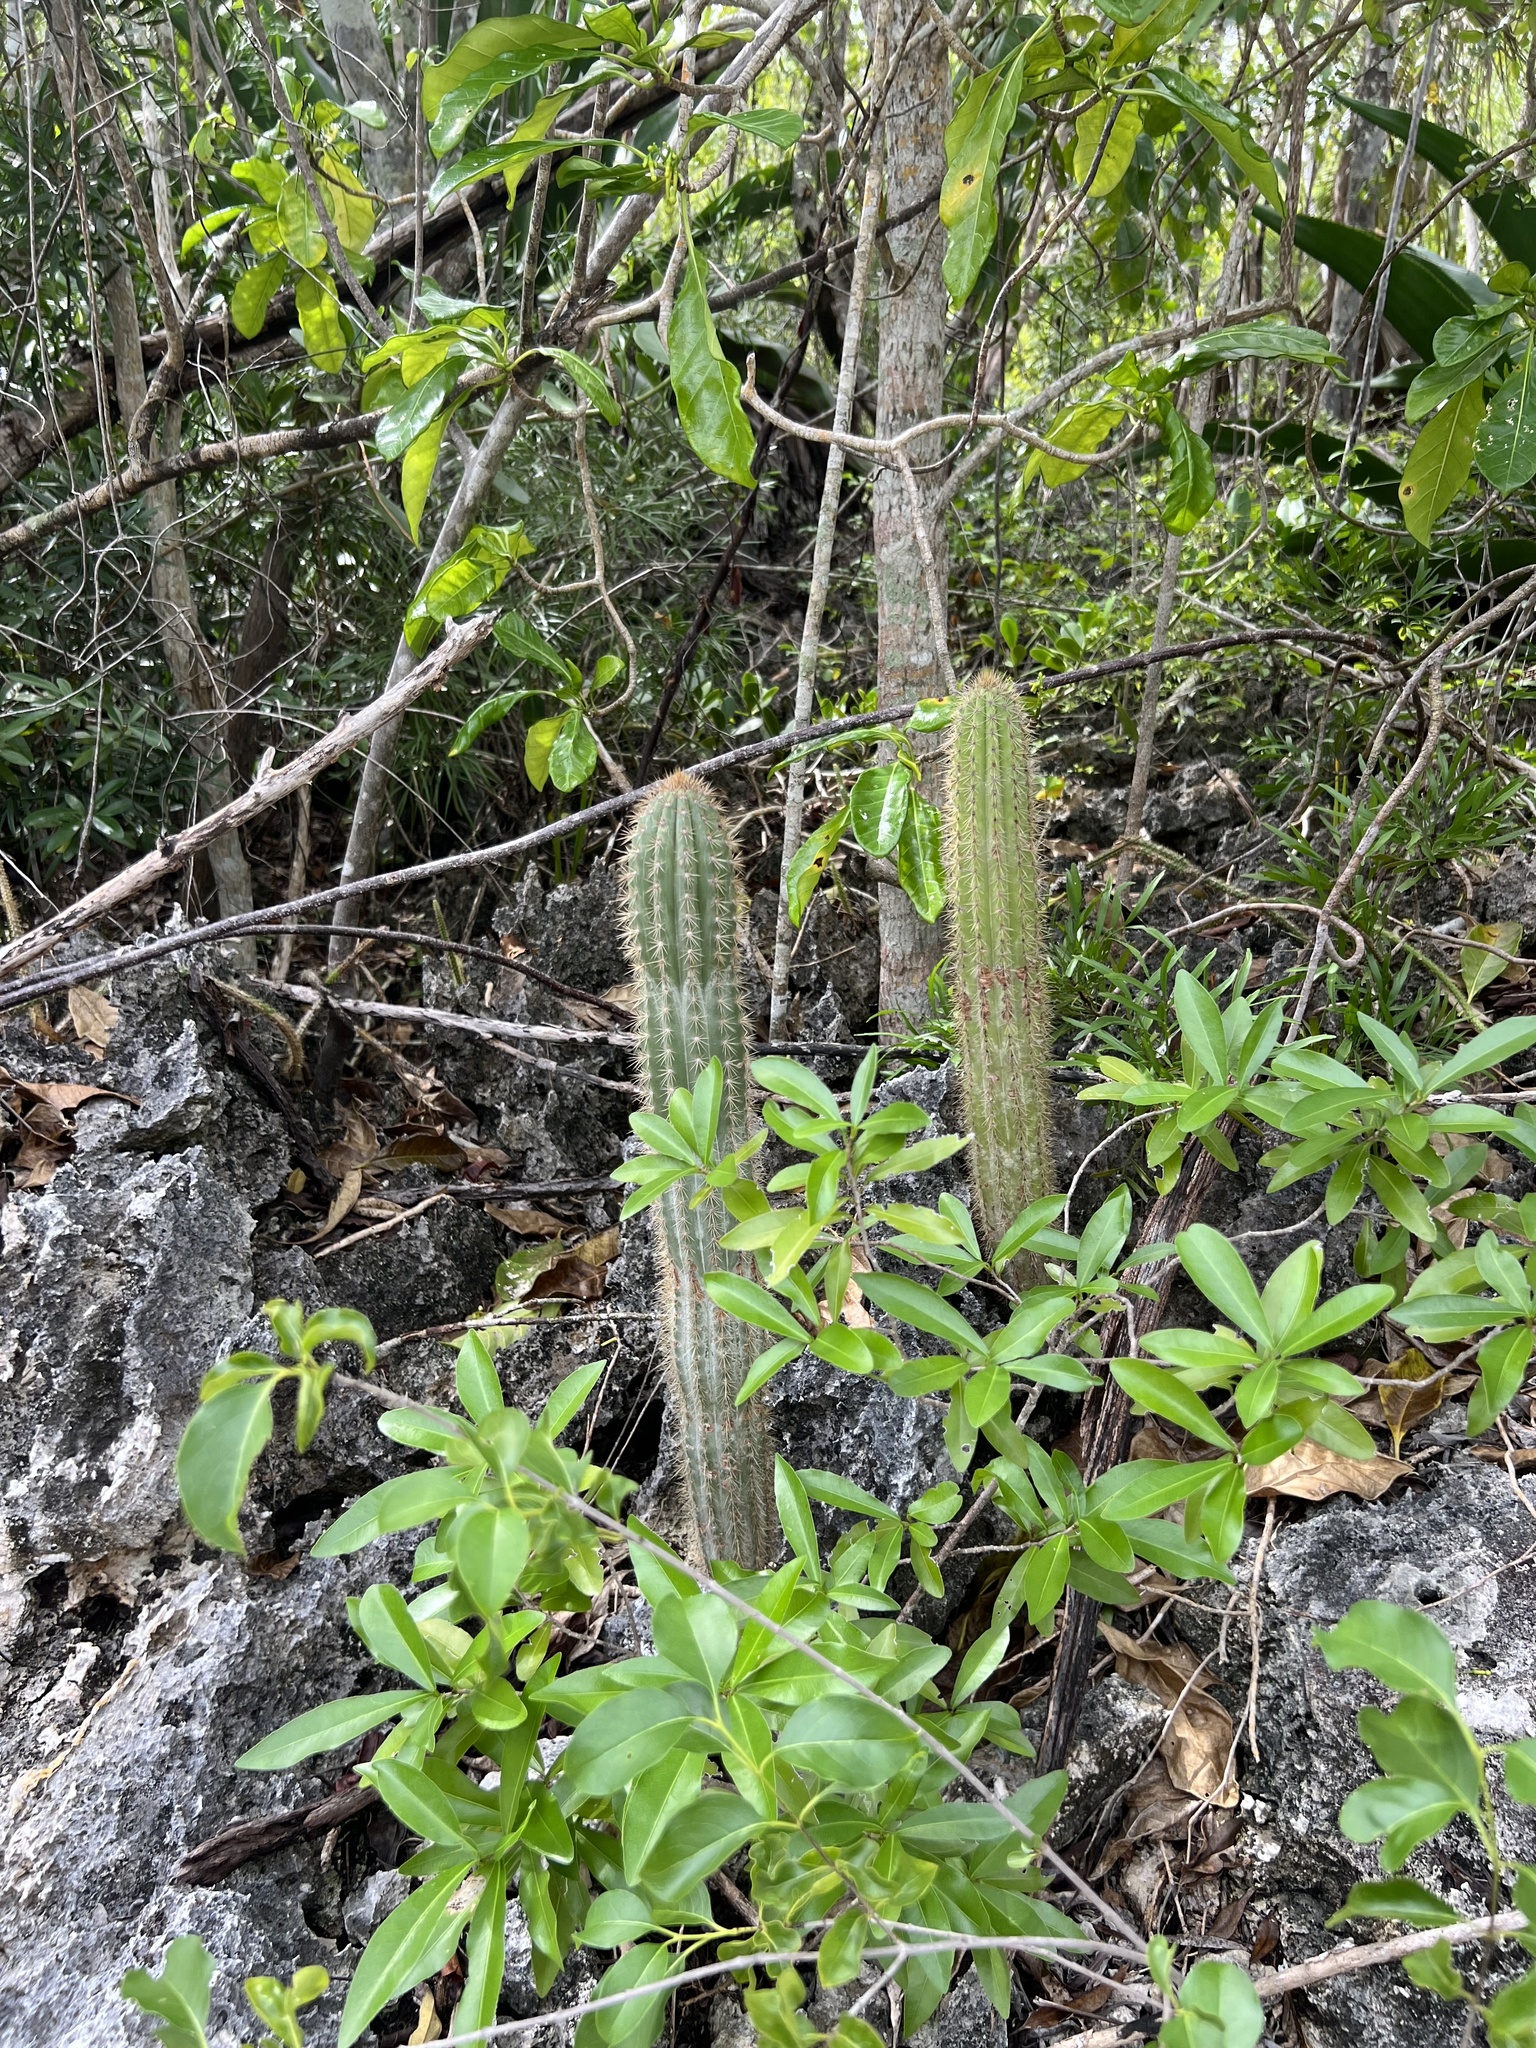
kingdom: Plantae
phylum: Tracheophyta
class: Magnoliopsida
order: Caryophyllales
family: Cactaceae
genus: Pilosocereus
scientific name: Pilosocereus jamaicensis
